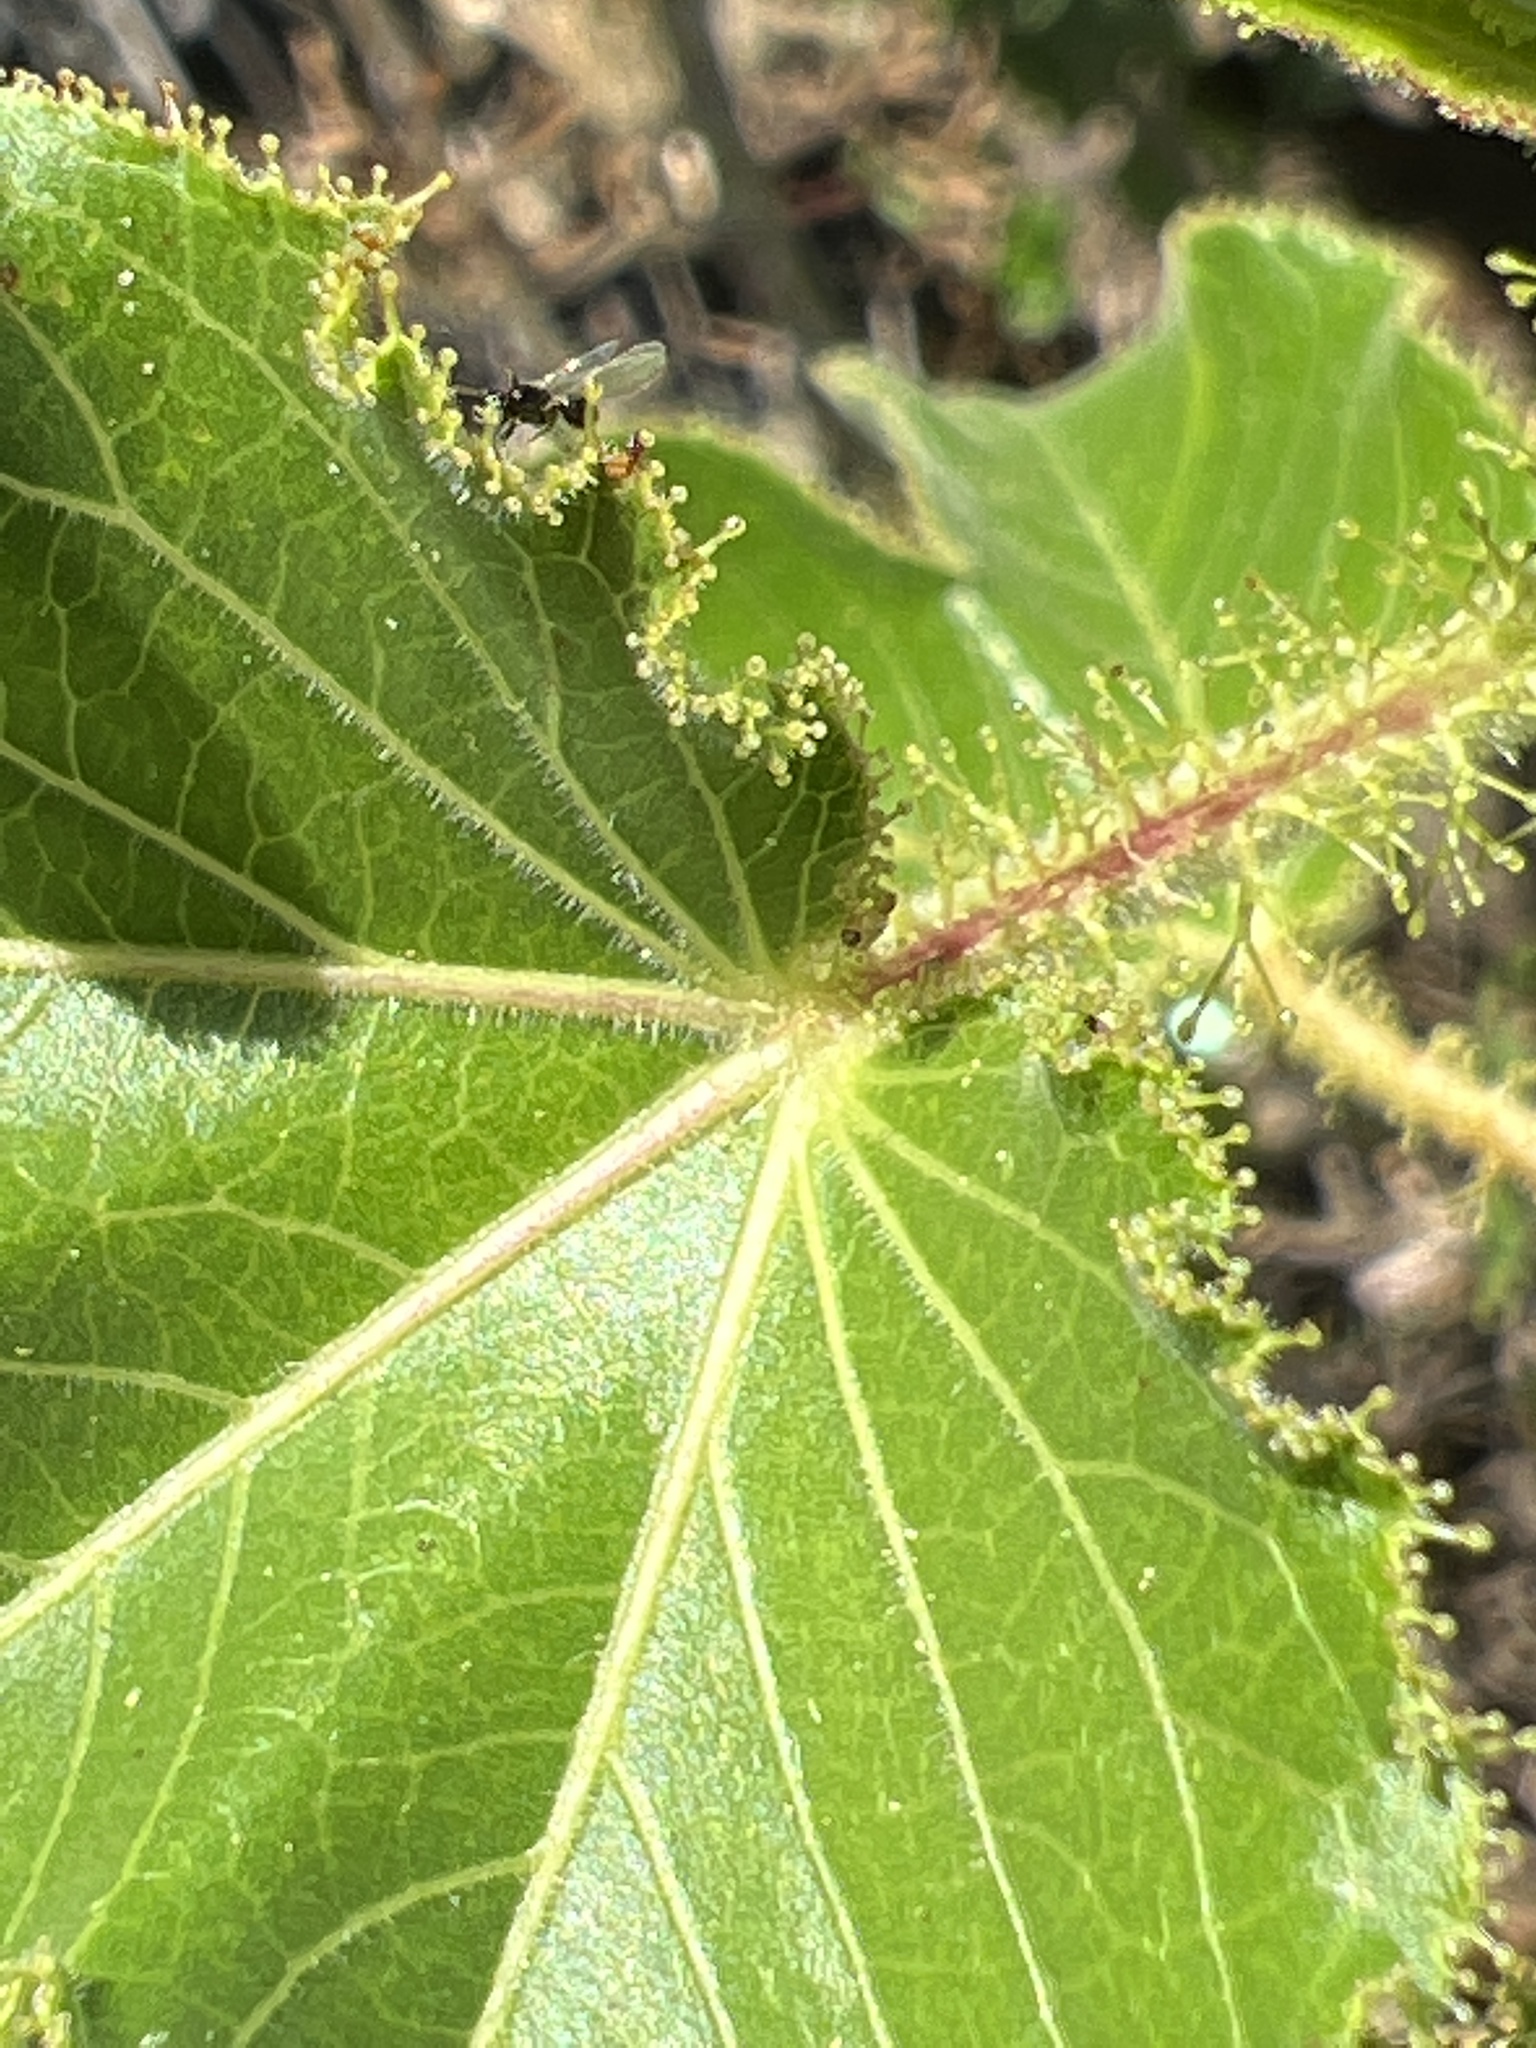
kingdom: Plantae
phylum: Tracheophyta
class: Magnoliopsida
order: Malpighiales
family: Euphorbiaceae
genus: Jatropha
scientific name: Jatropha gossypiifolia
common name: Bellyache bush
